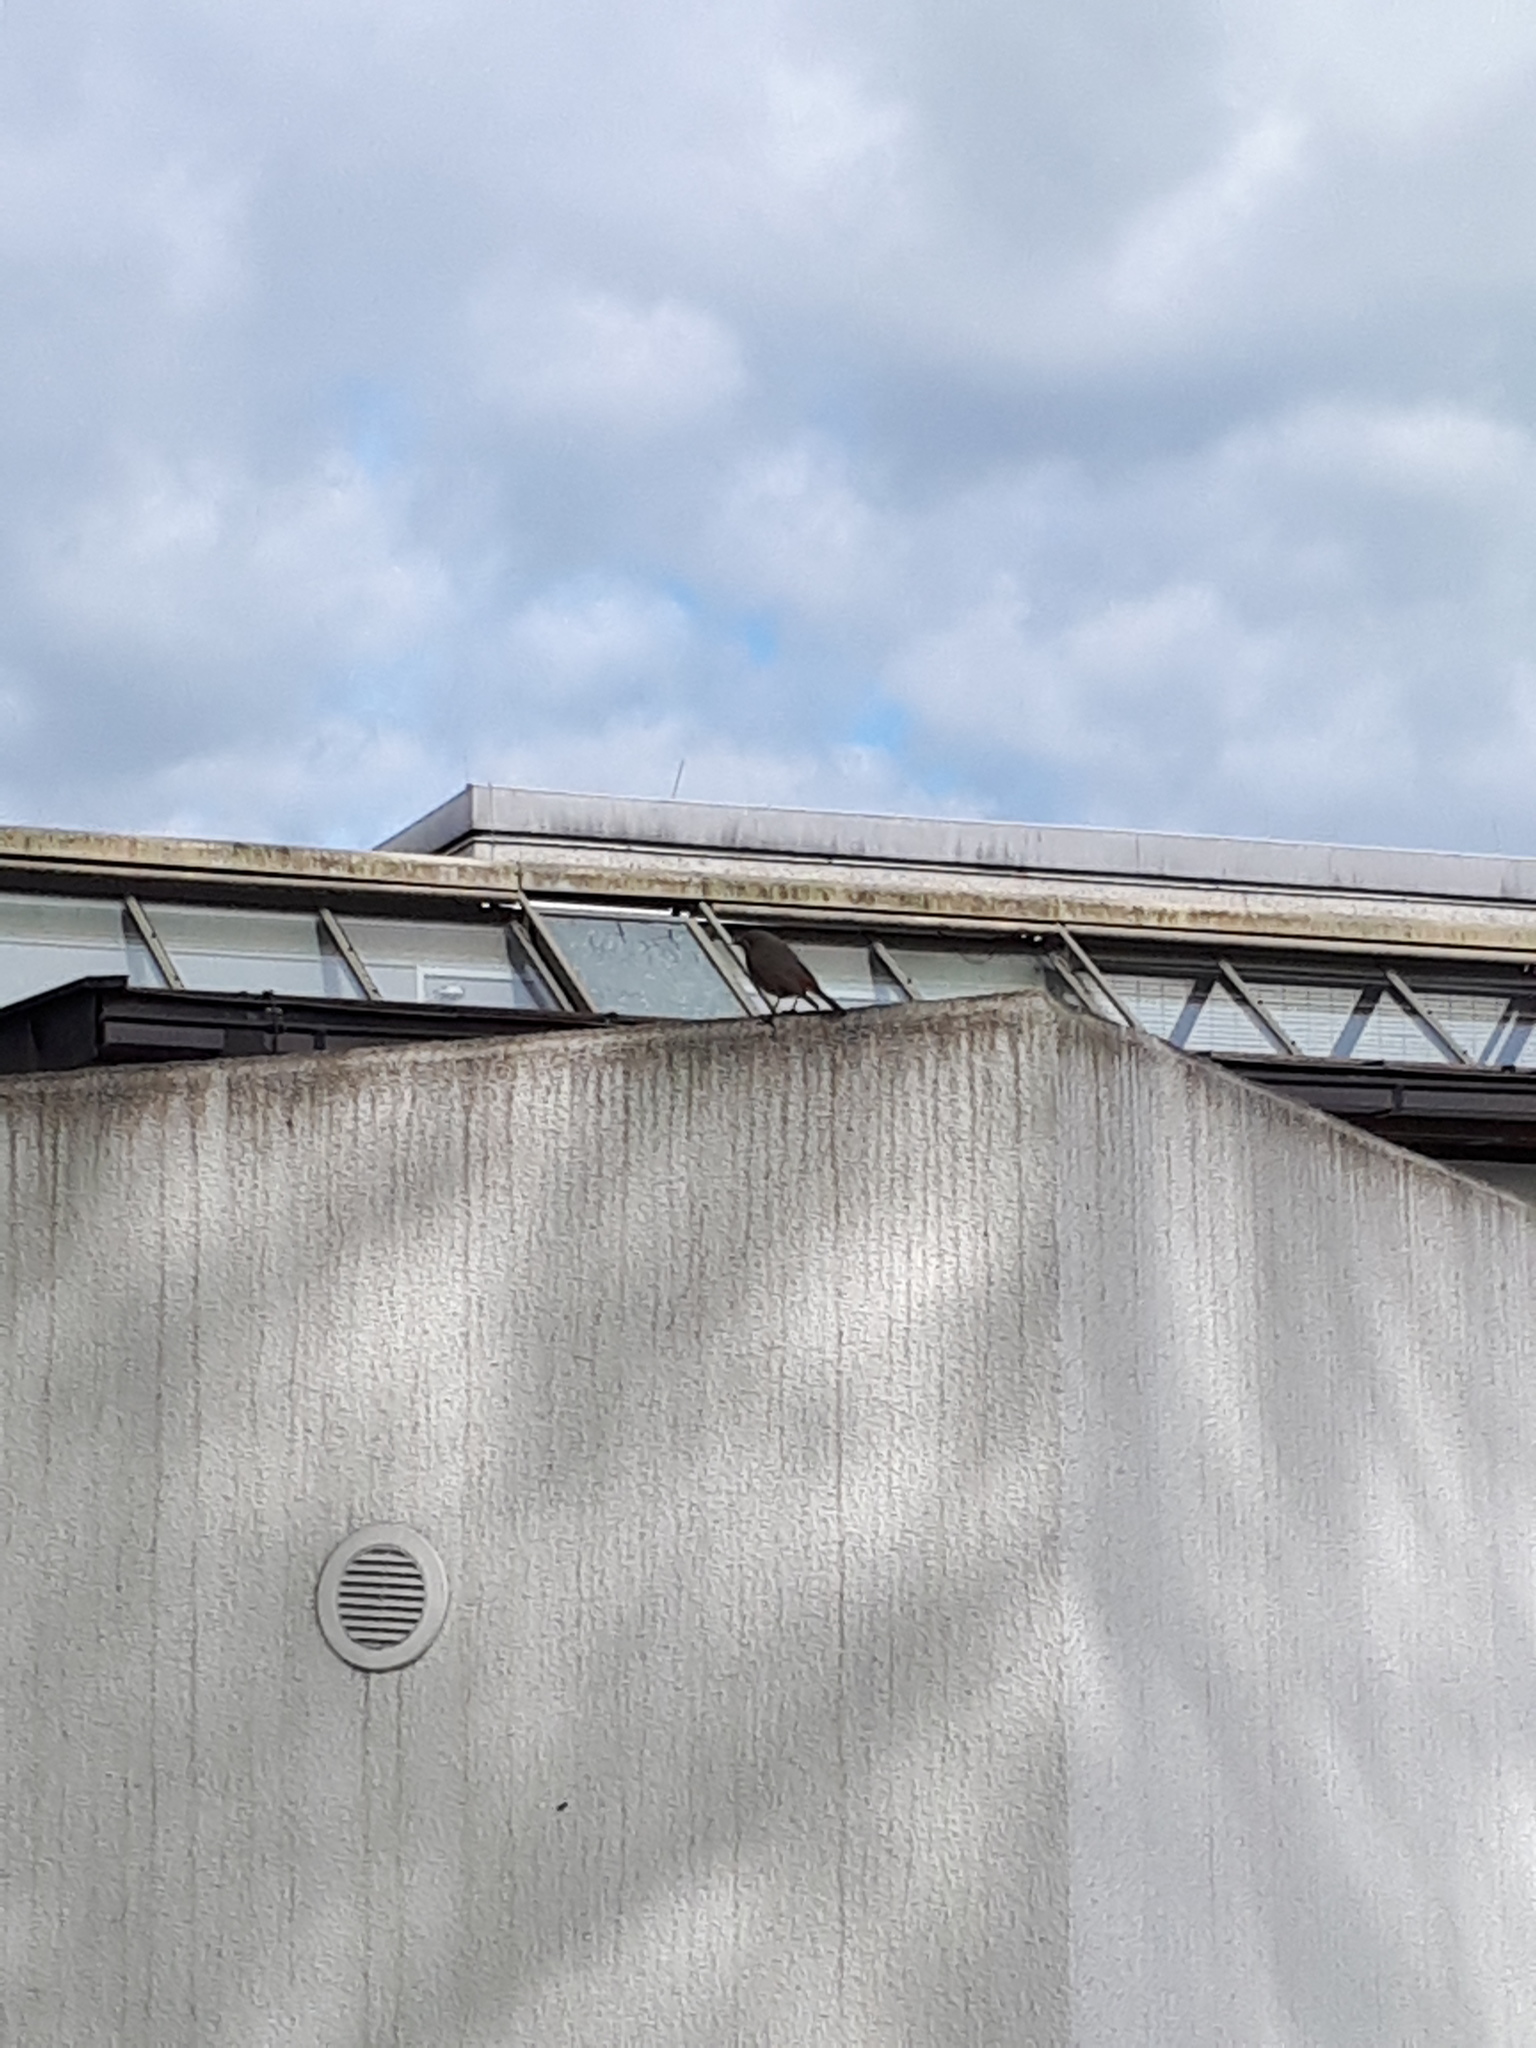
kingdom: Animalia
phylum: Chordata
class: Aves
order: Passeriformes
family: Muscicapidae
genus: Phoenicurus
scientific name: Phoenicurus ochruros
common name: Black redstart
